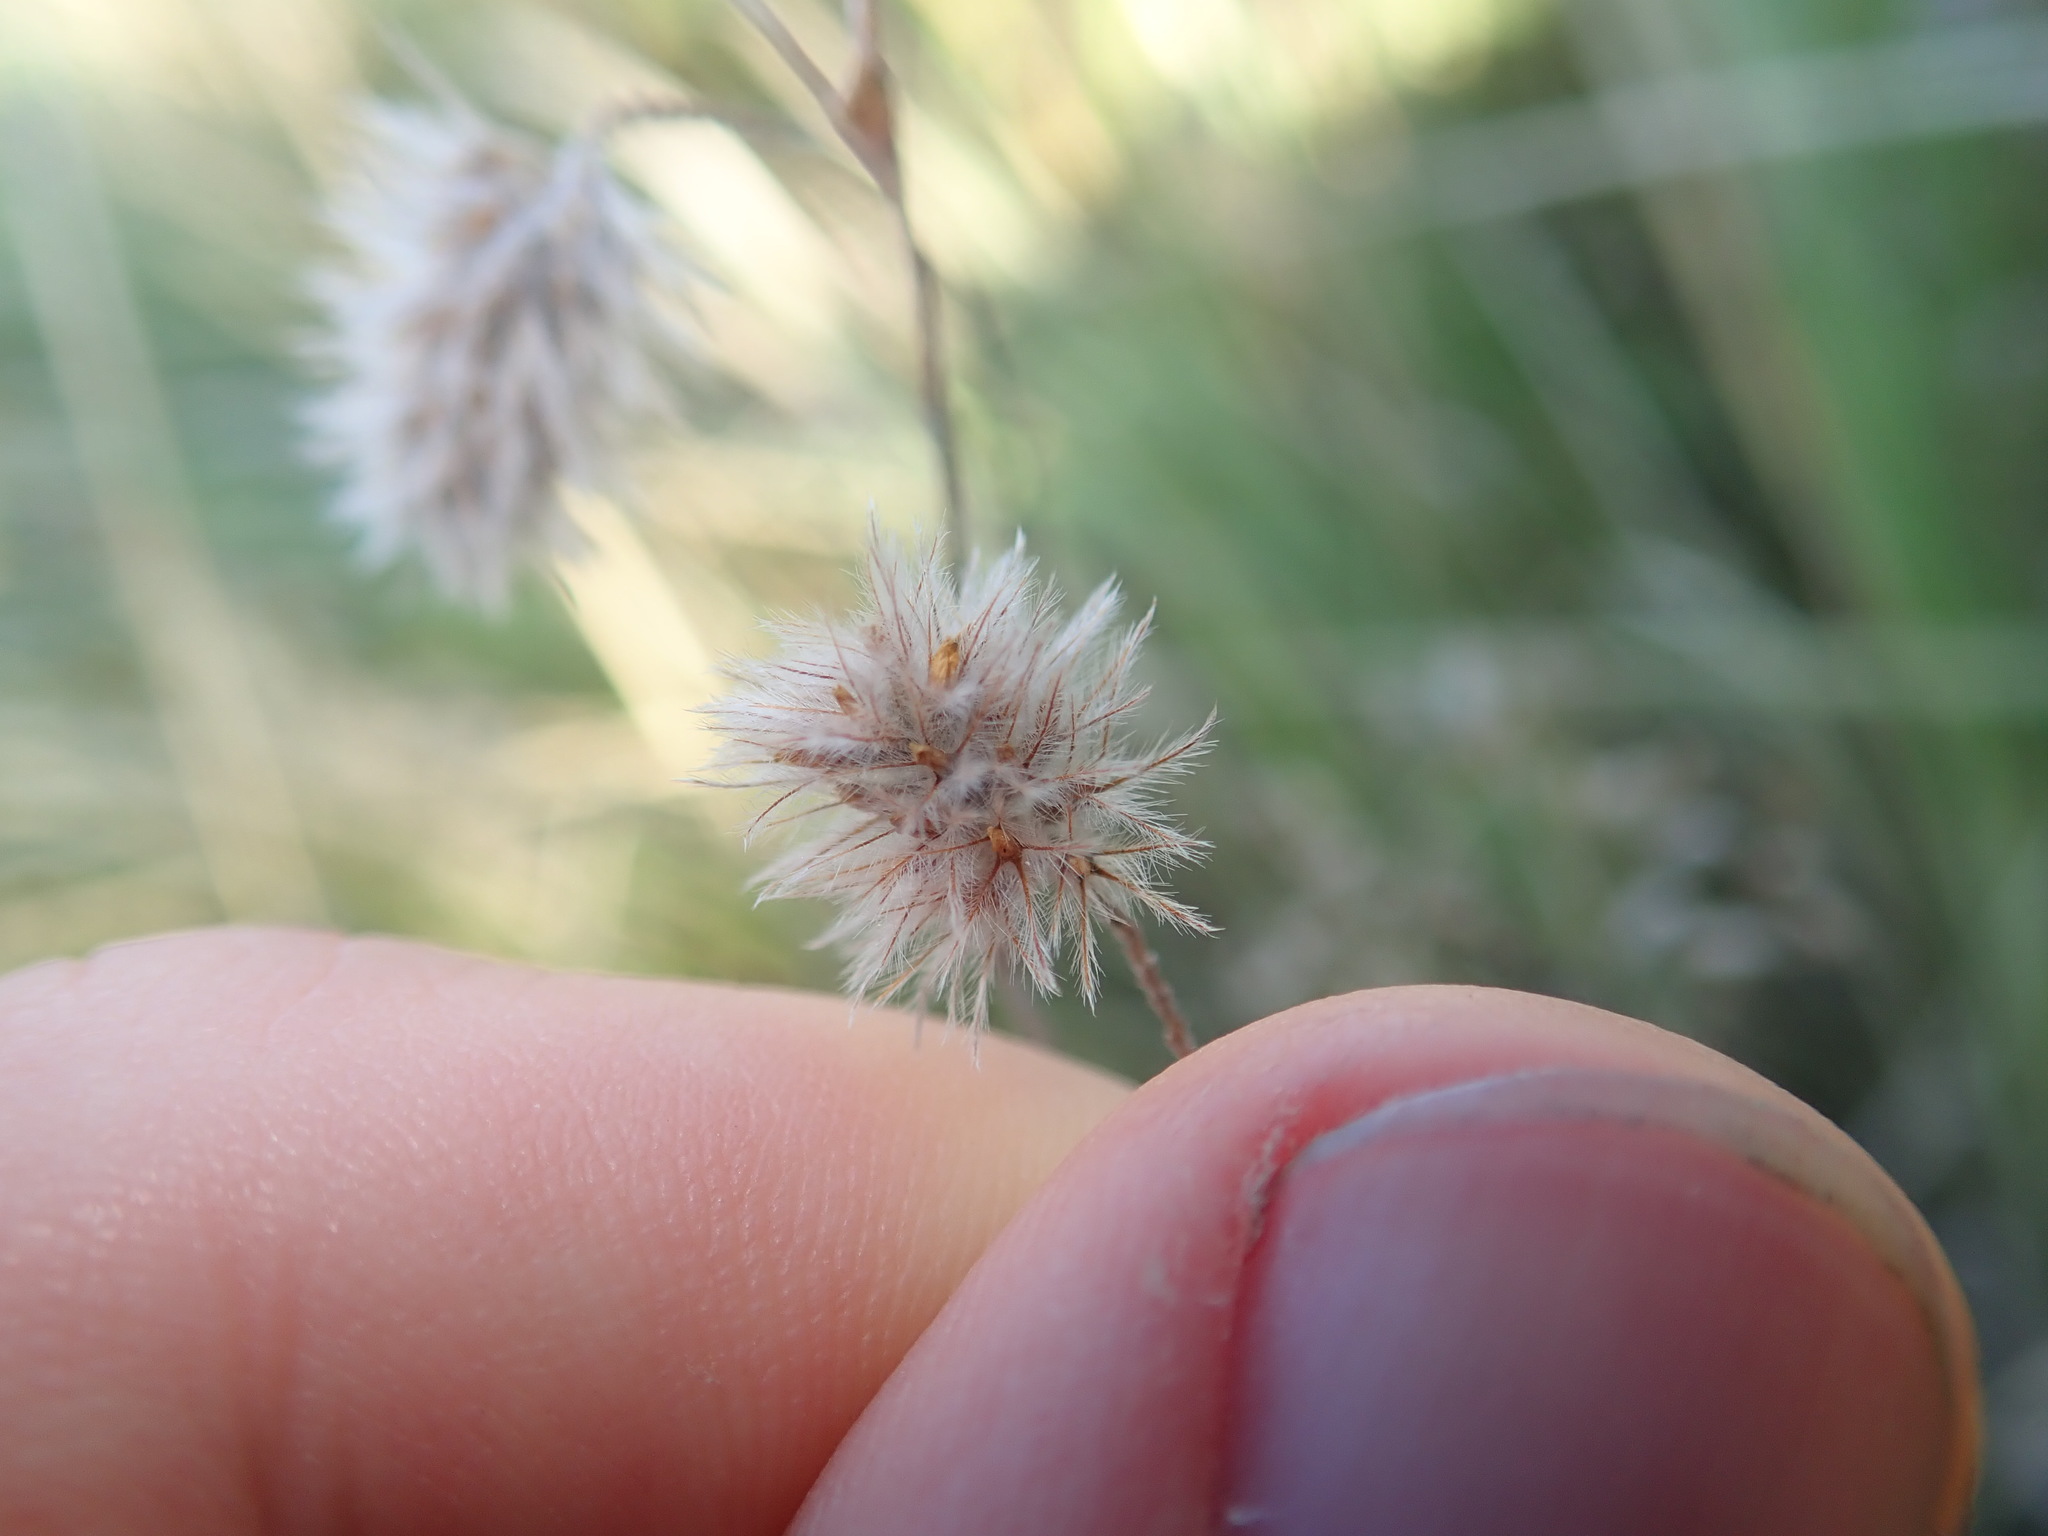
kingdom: Plantae
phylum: Tracheophyta
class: Magnoliopsida
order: Fabales
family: Fabaceae
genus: Trifolium
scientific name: Trifolium arvense
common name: Hare's-foot clover
